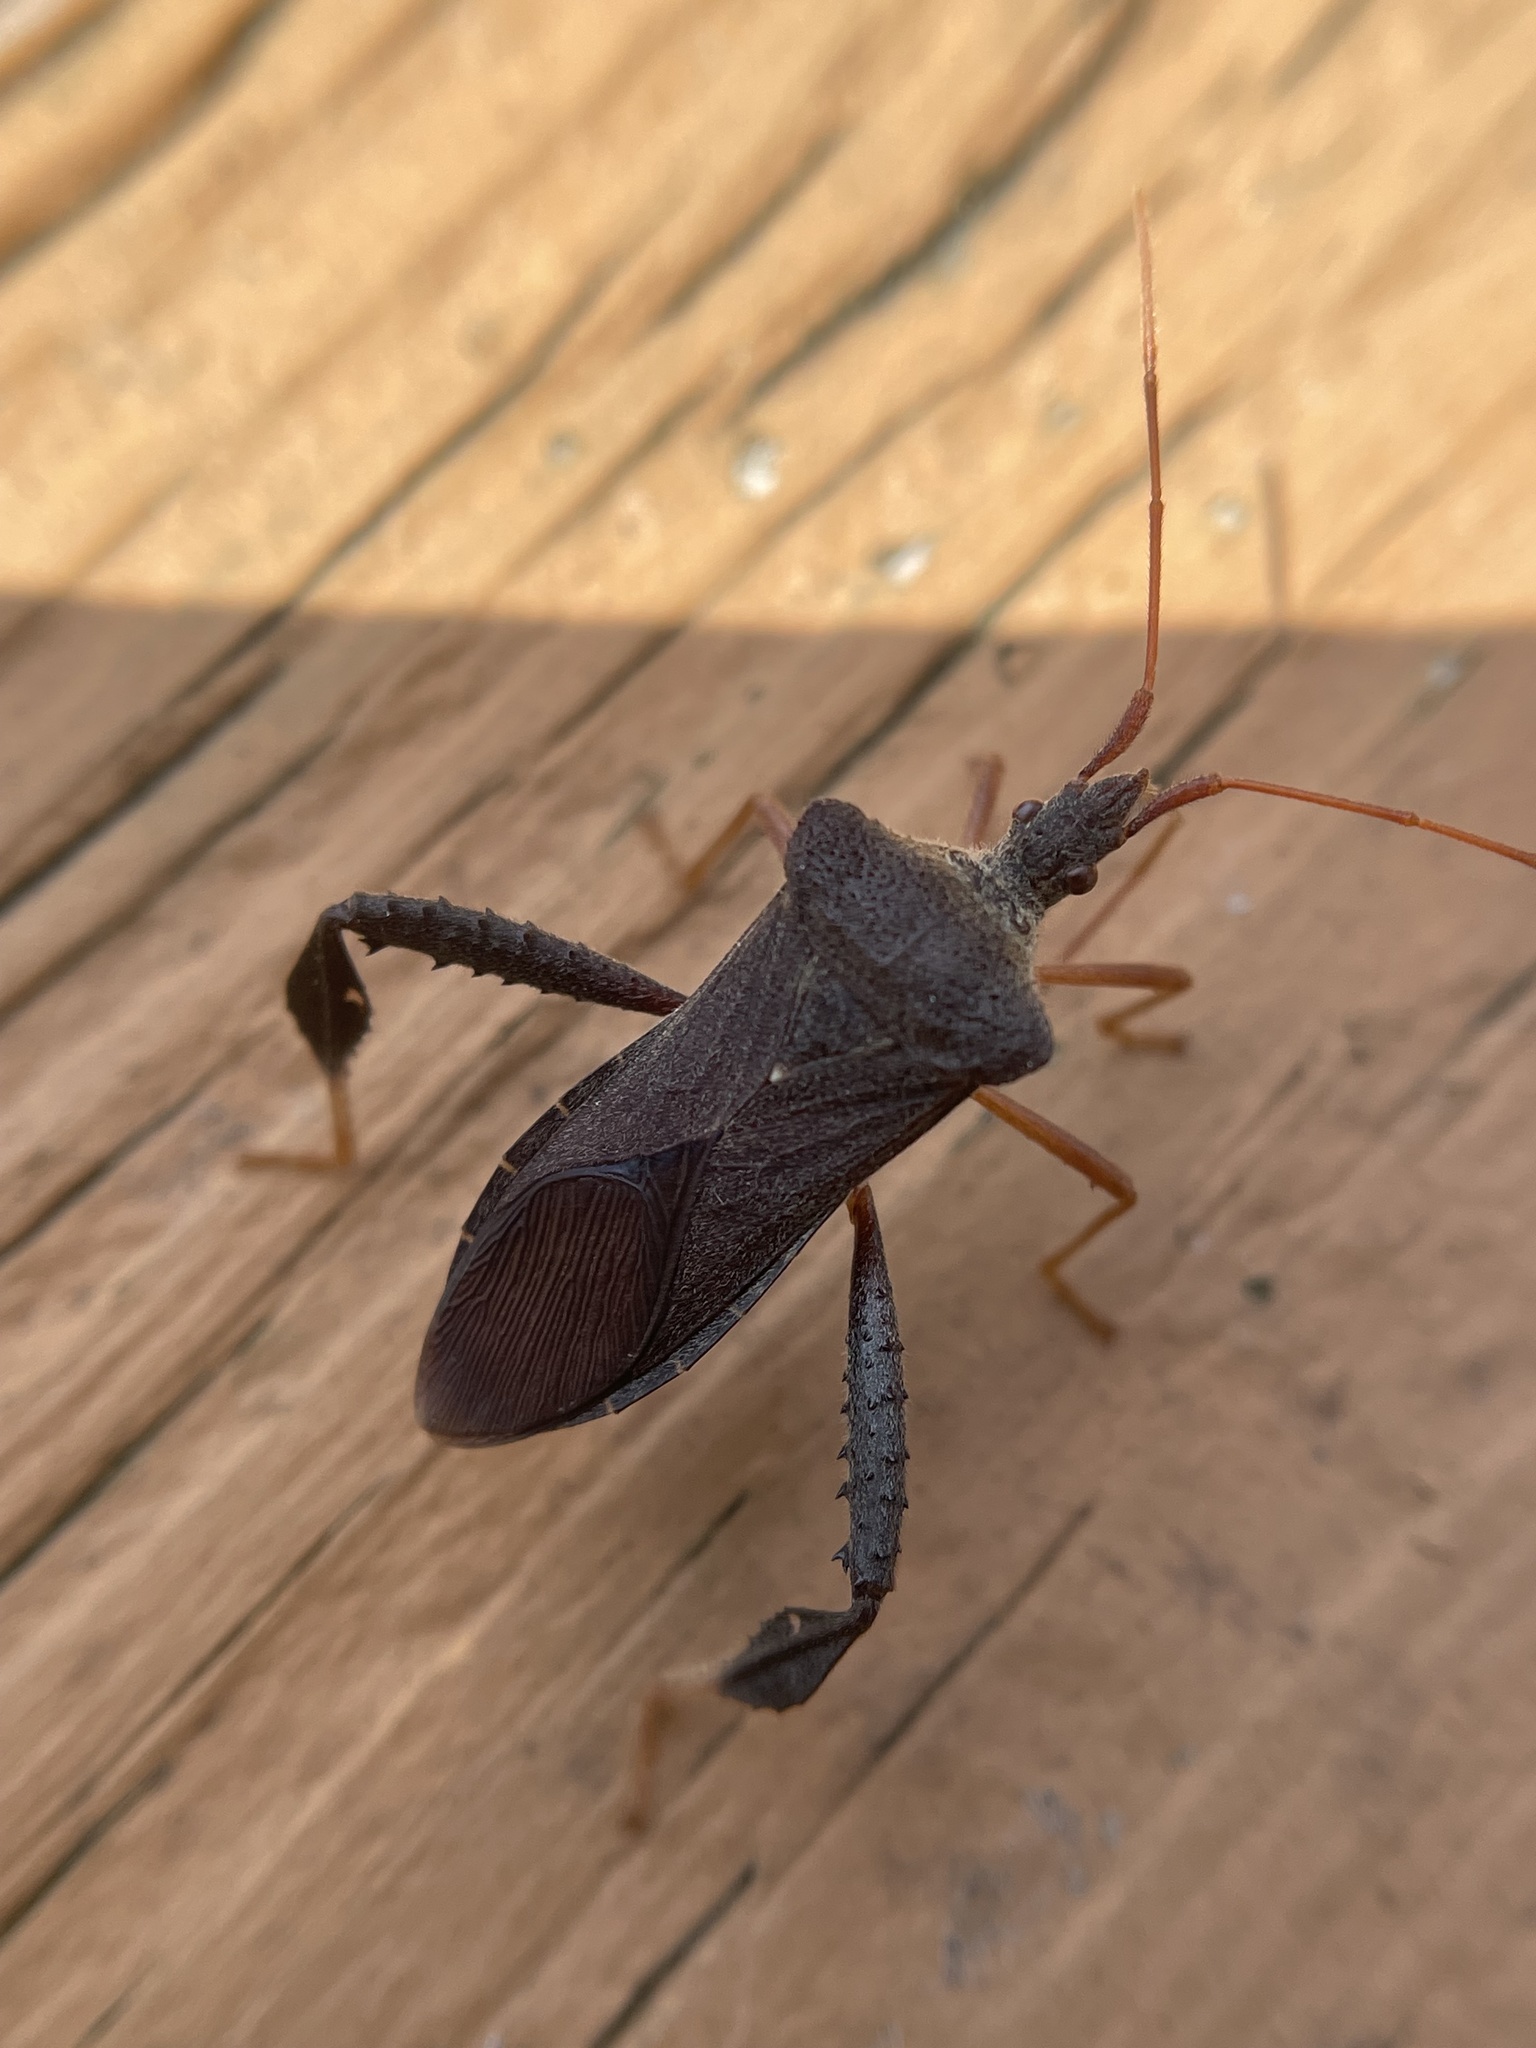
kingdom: Animalia
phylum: Arthropoda
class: Insecta
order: Hemiptera
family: Coreidae
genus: Leptoglossus
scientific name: Leptoglossus fulvicornis
